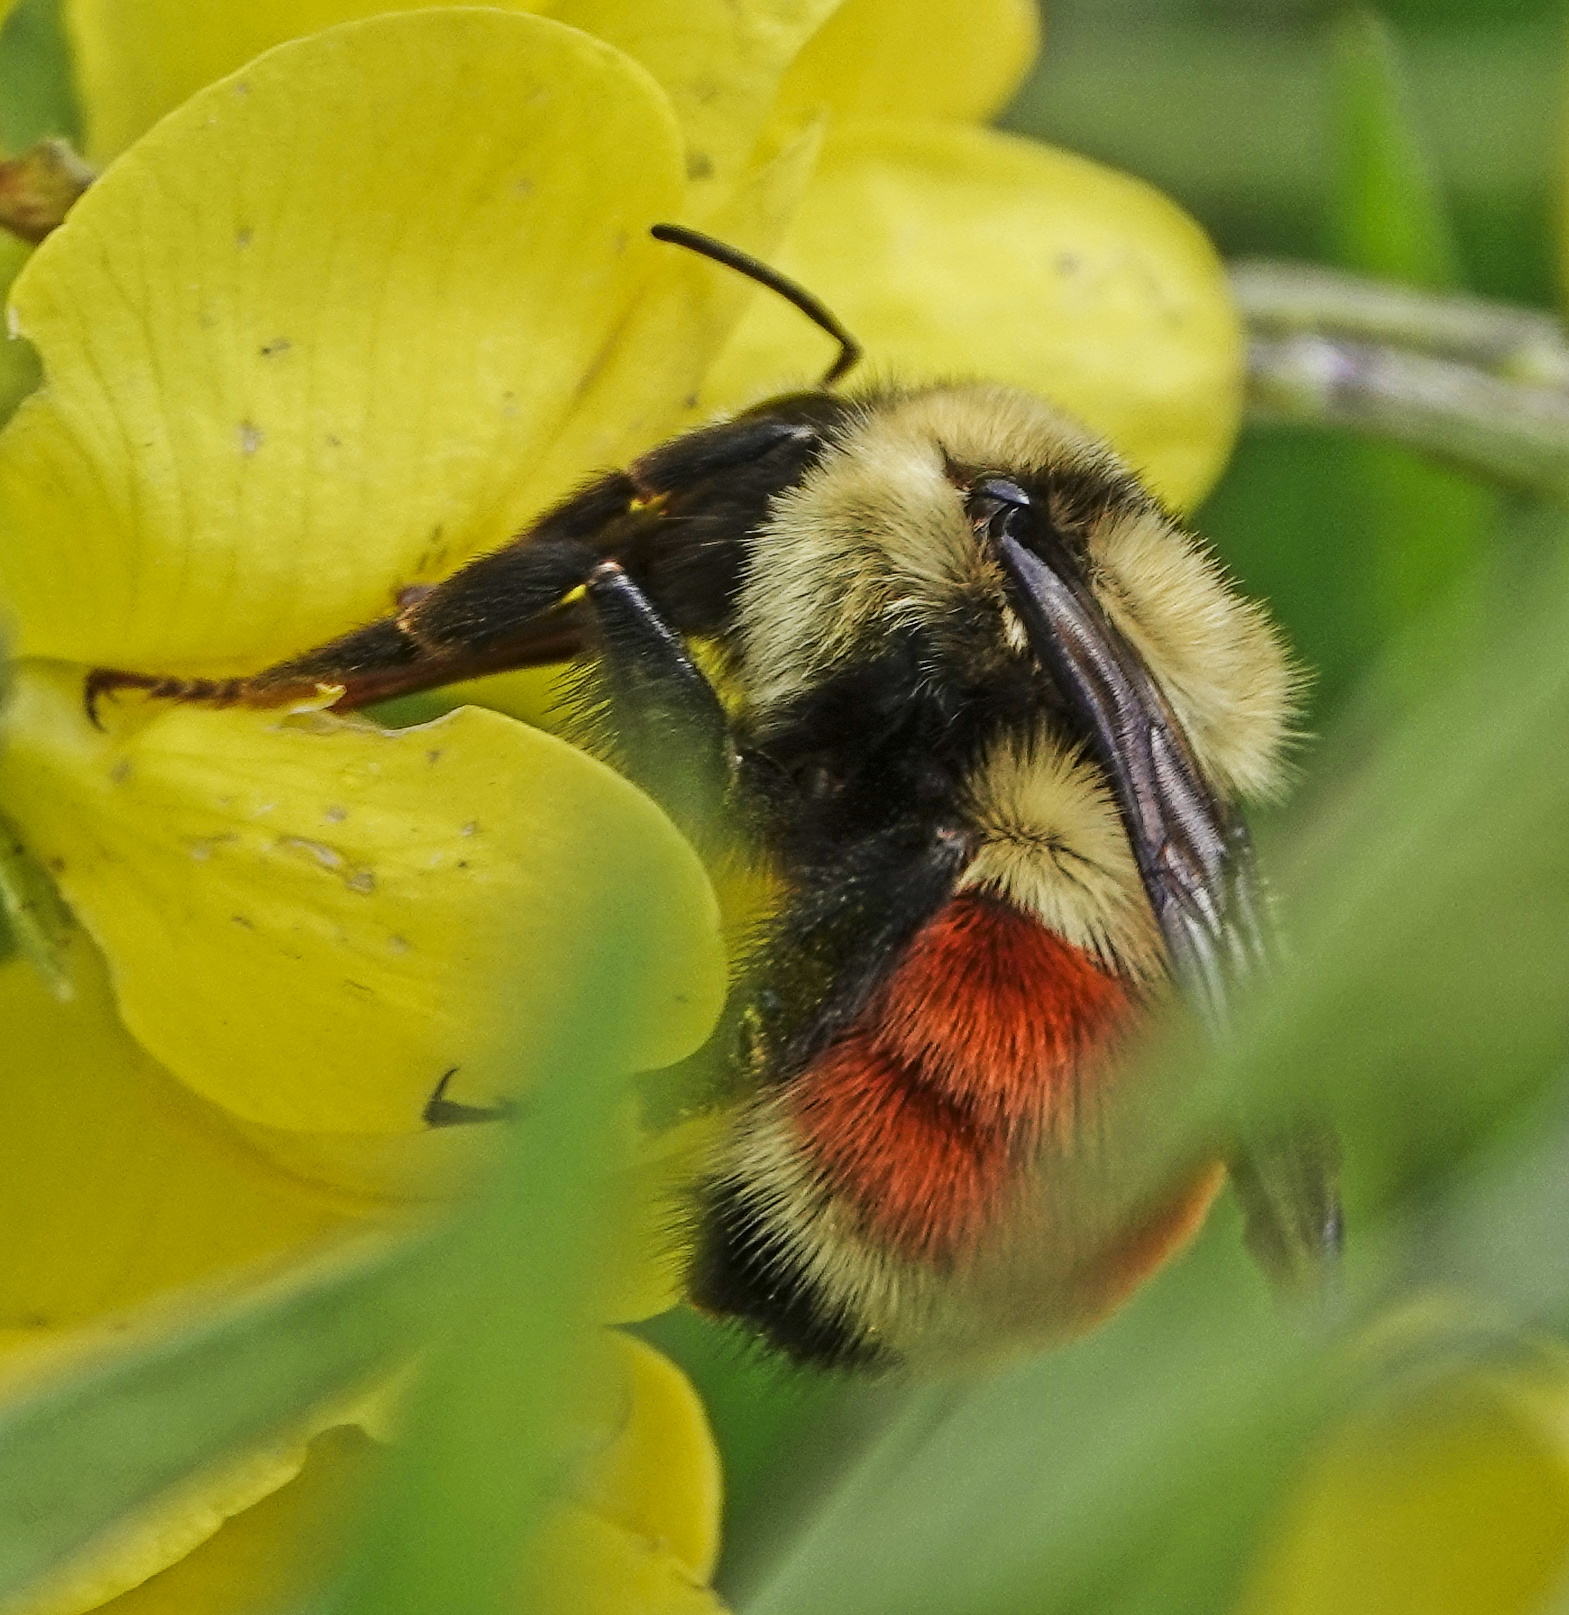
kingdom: Animalia
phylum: Arthropoda
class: Insecta
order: Hymenoptera
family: Apidae
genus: Bombus
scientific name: Bombus huntii
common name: Hunt bumble bee
